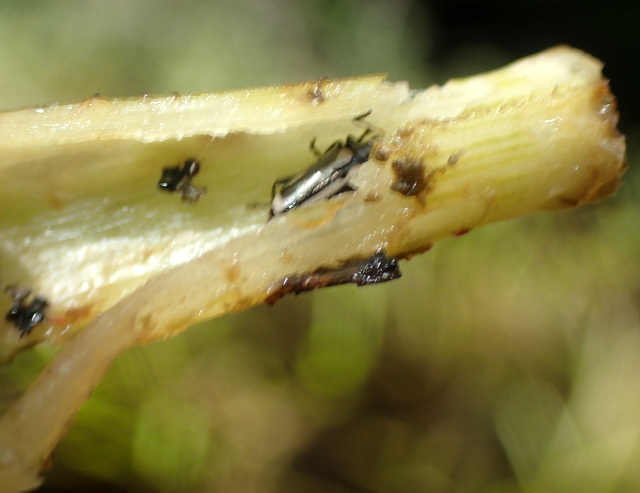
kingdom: Animalia
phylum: Arthropoda
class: Insecta
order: Coleoptera
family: Chrysomelidae
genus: Agasicles
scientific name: Agasicles hygrophila
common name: Alligatorweed flea beetle
